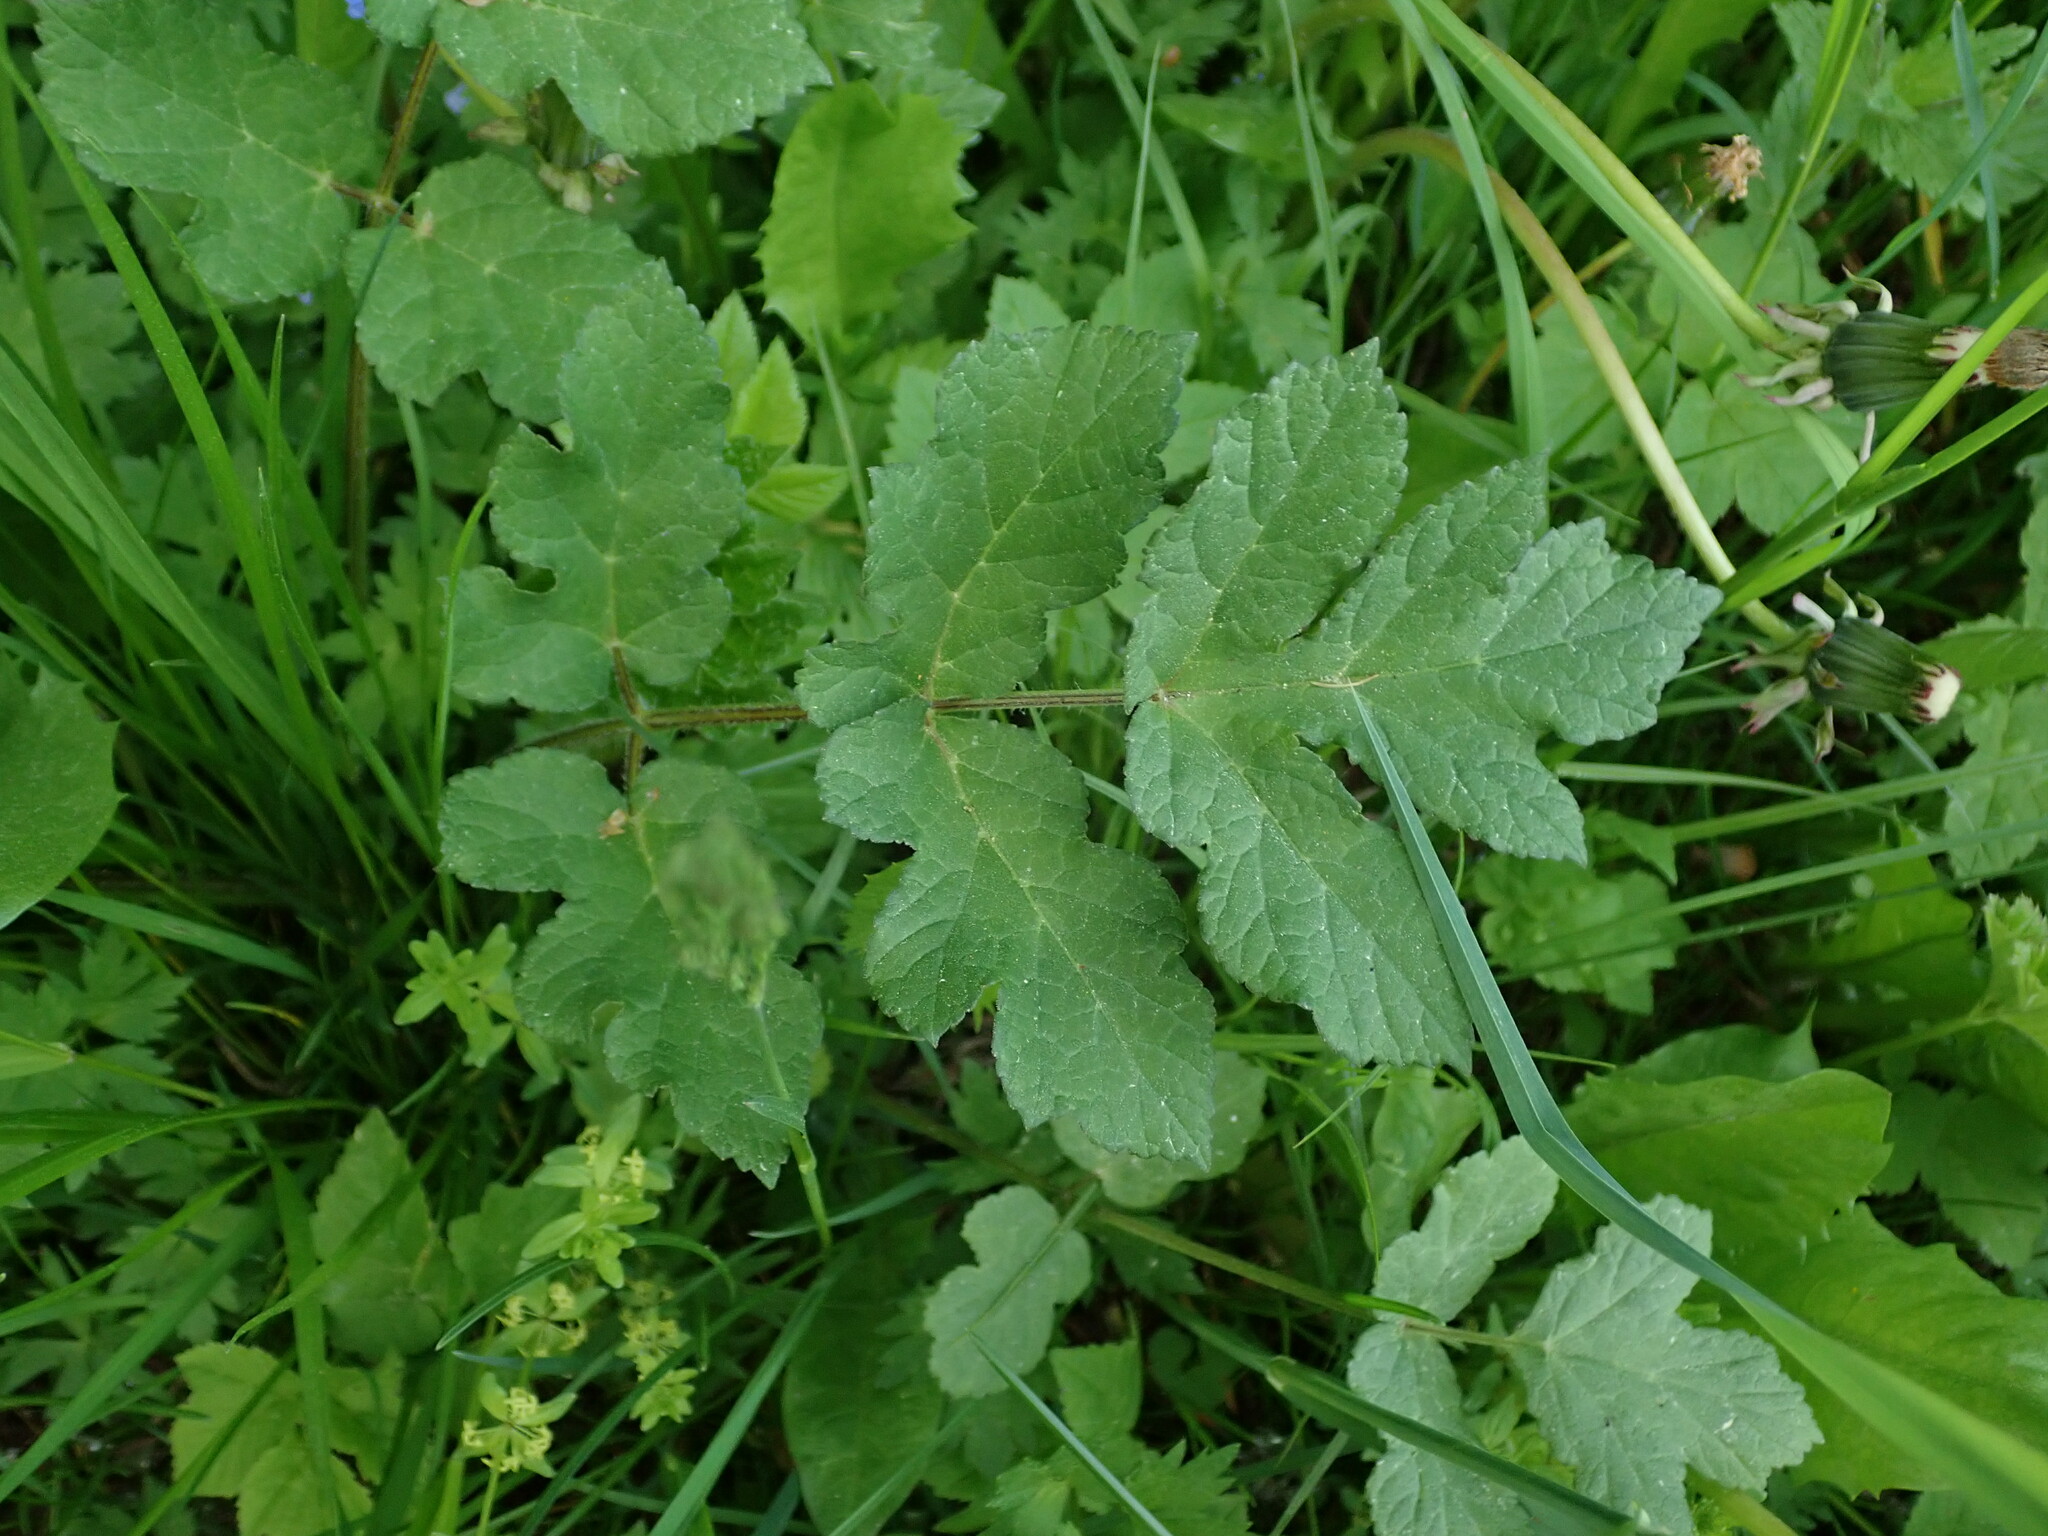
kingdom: Plantae
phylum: Tracheophyta
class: Magnoliopsida
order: Apiales
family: Apiaceae
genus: Heracleum
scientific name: Heracleum sphondylium
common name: Hogweed
